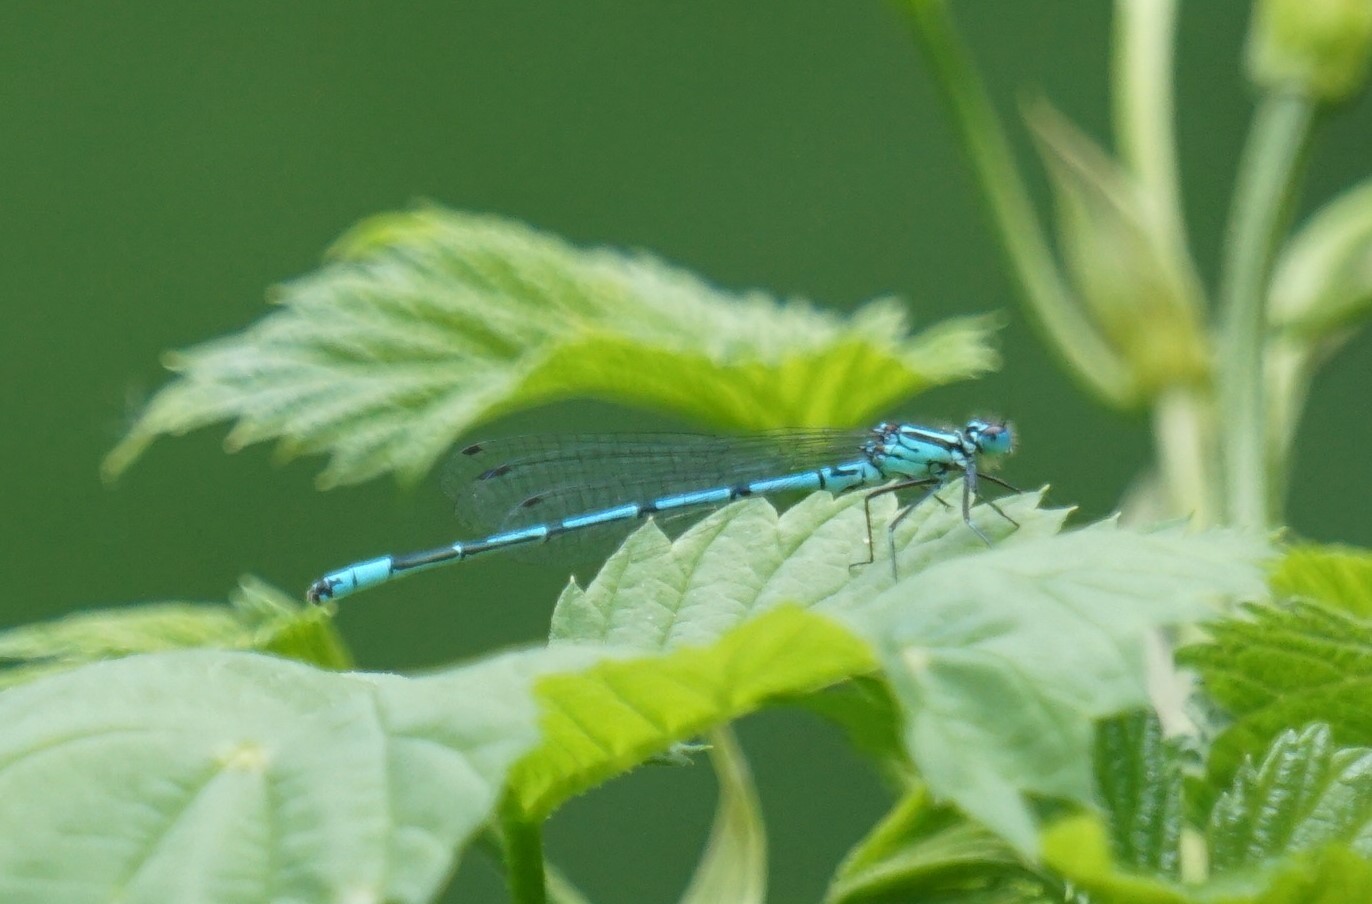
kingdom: Animalia
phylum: Arthropoda
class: Insecta
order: Odonata
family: Coenagrionidae
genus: Coenagrion
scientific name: Coenagrion puella
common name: Azure damselfly
